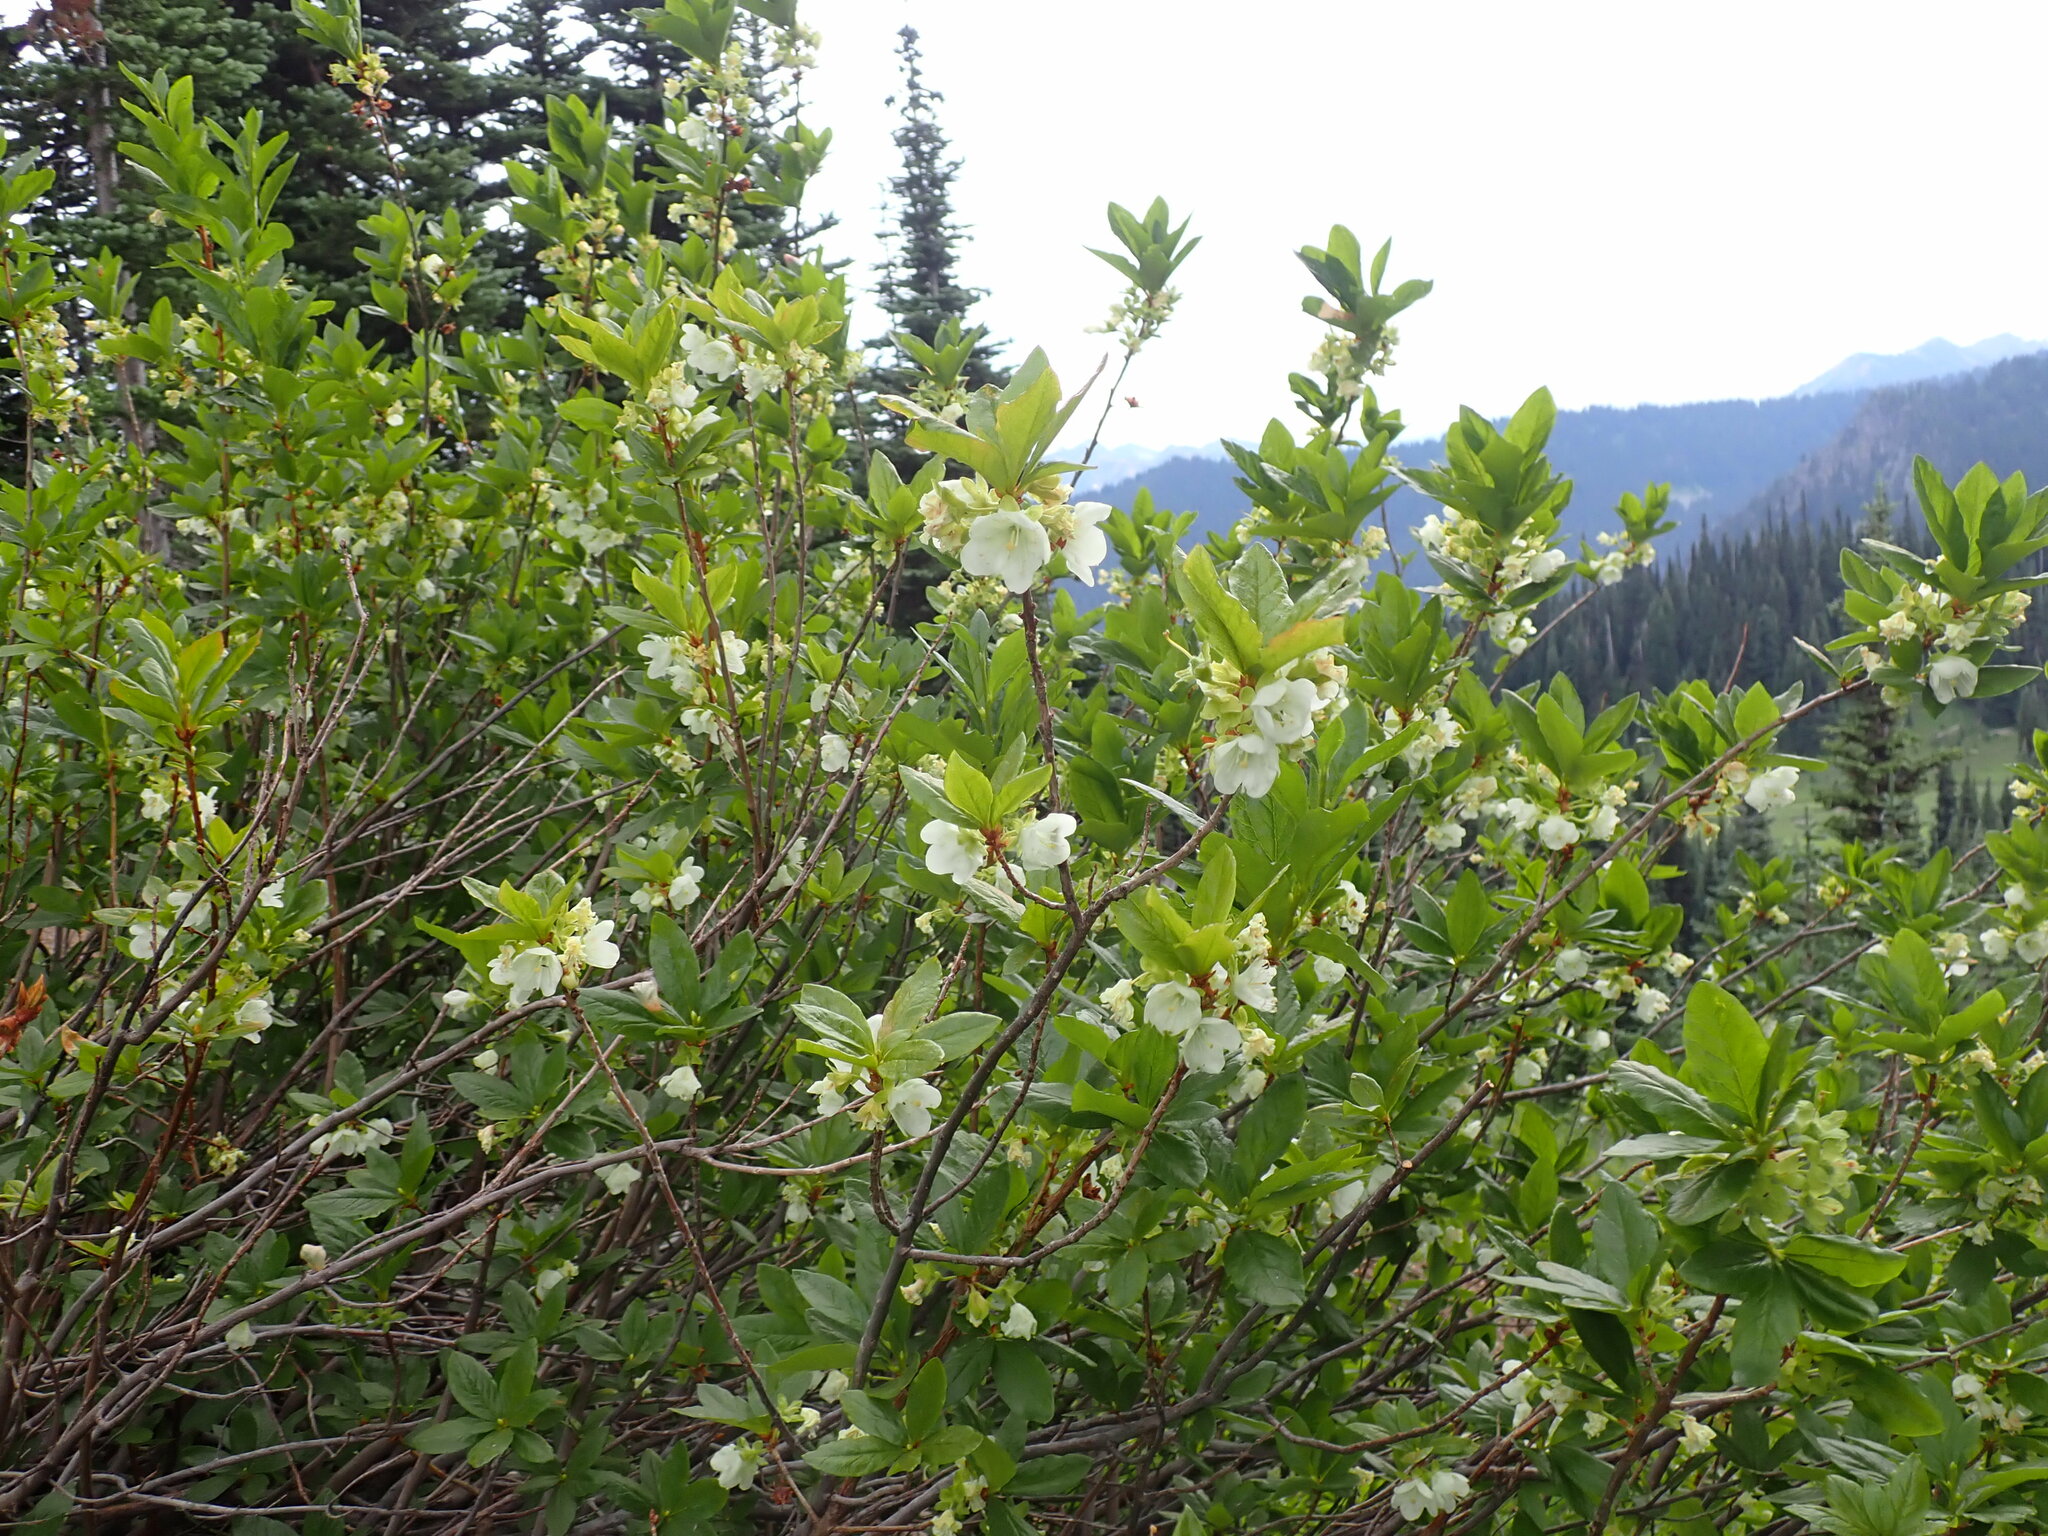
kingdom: Plantae
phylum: Tracheophyta
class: Magnoliopsida
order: Ericales
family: Ericaceae
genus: Rhododendron
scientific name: Rhododendron albiflorum
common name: White rhododendron
